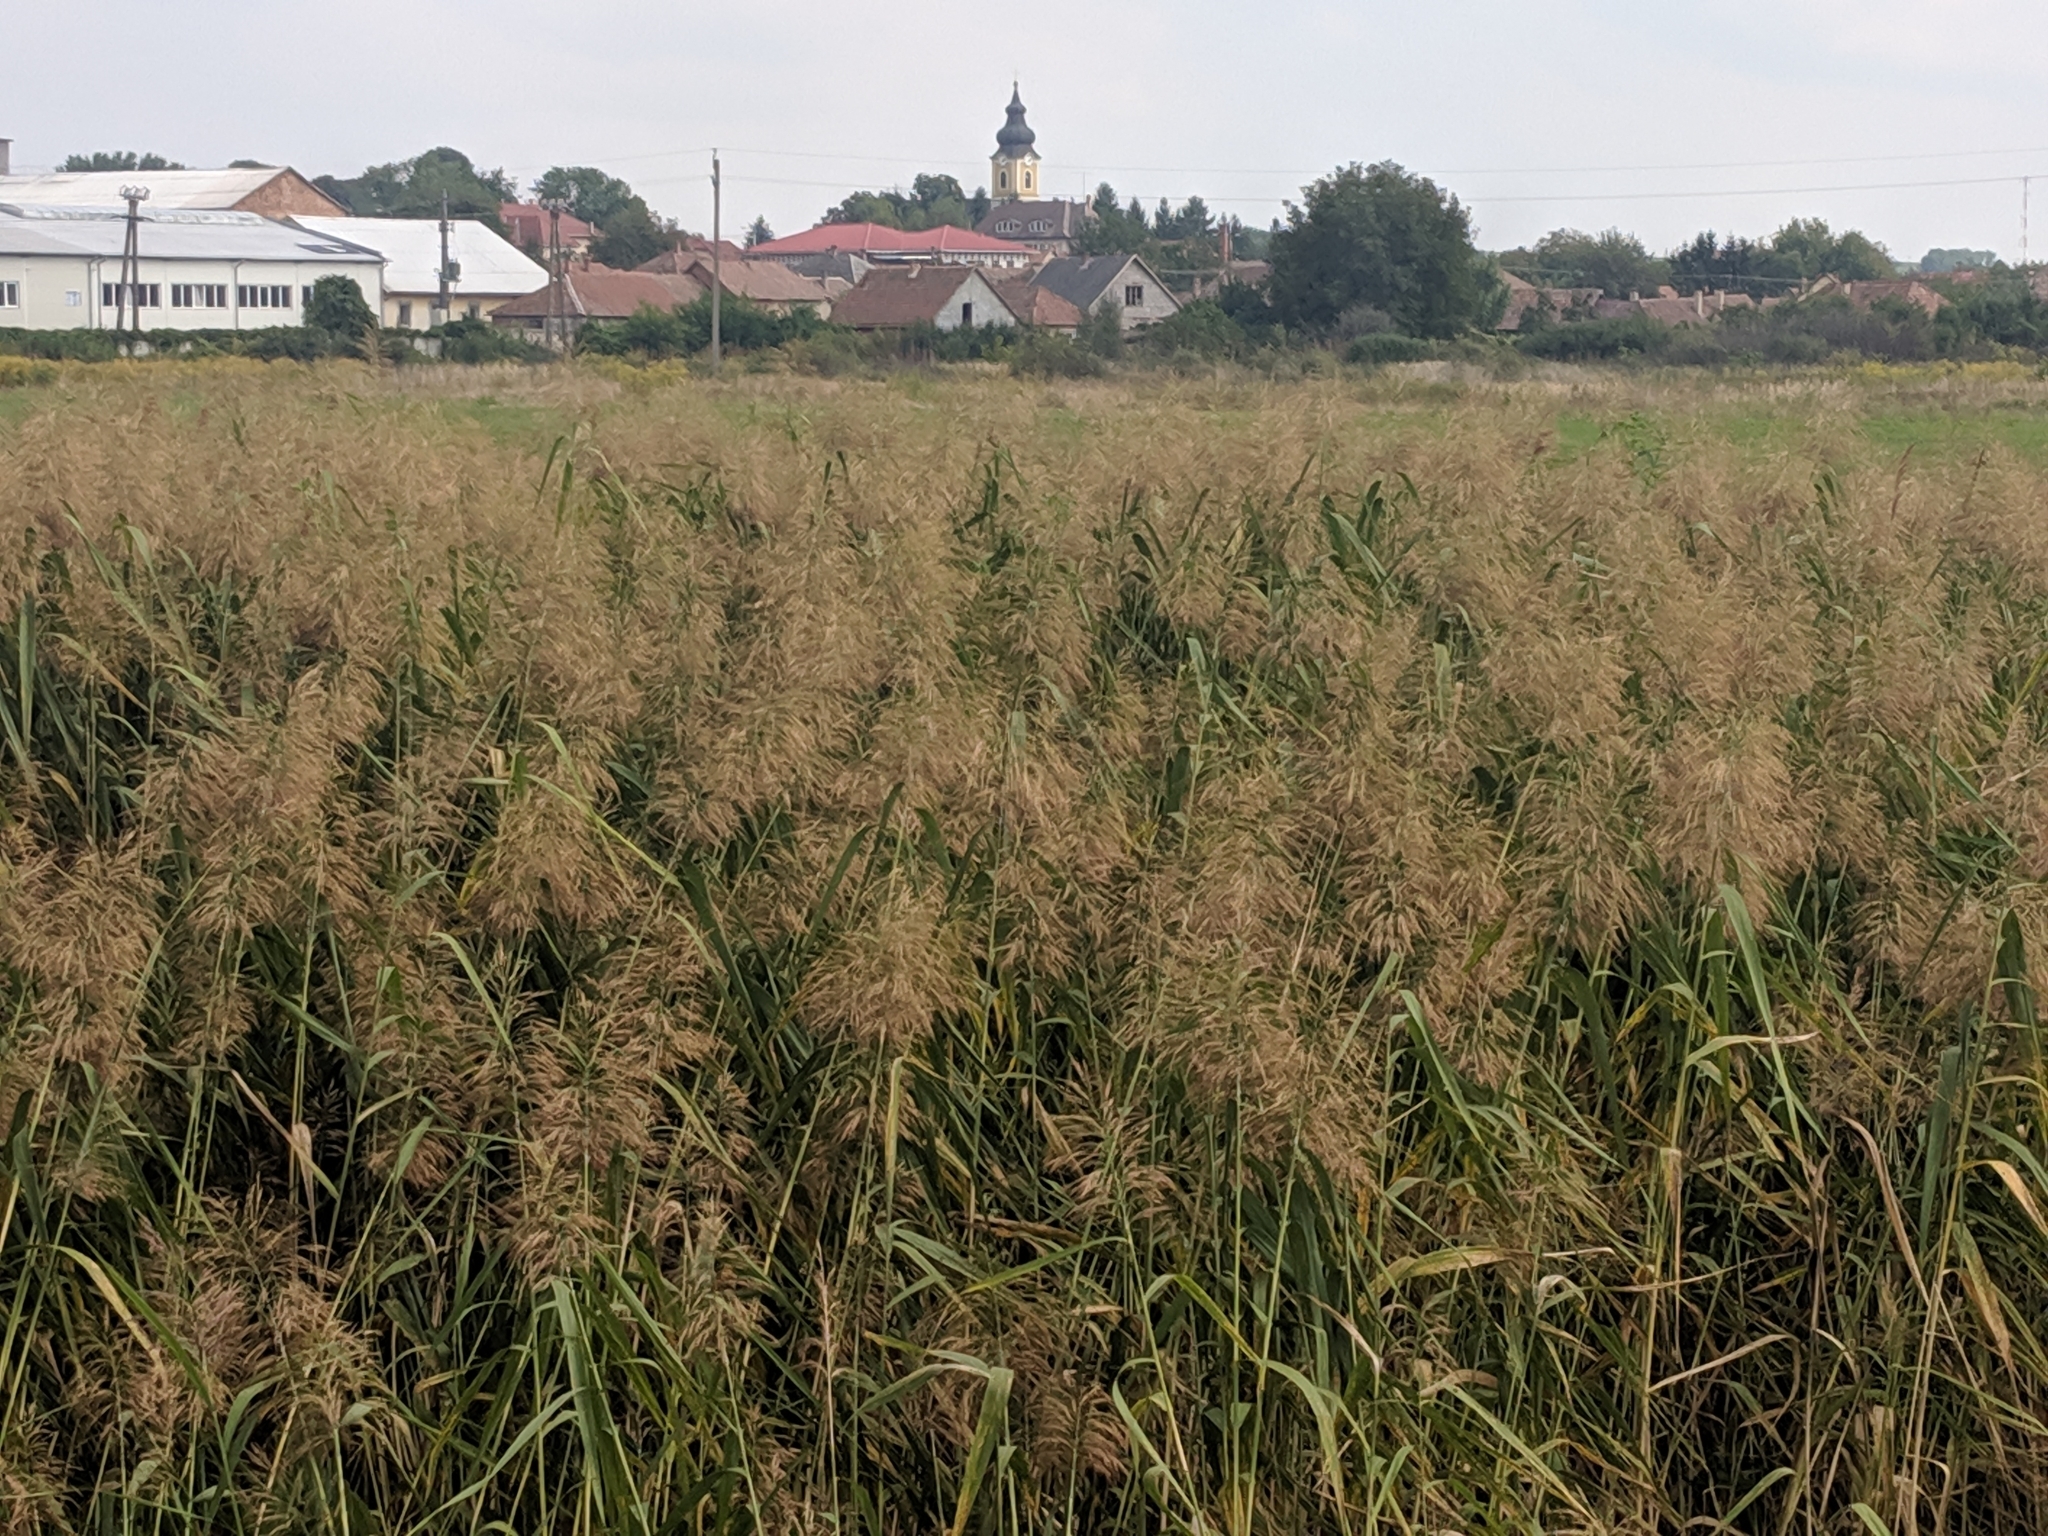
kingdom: Plantae
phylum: Tracheophyta
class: Liliopsida
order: Poales
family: Poaceae
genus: Phragmites
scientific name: Phragmites australis
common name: Common reed
